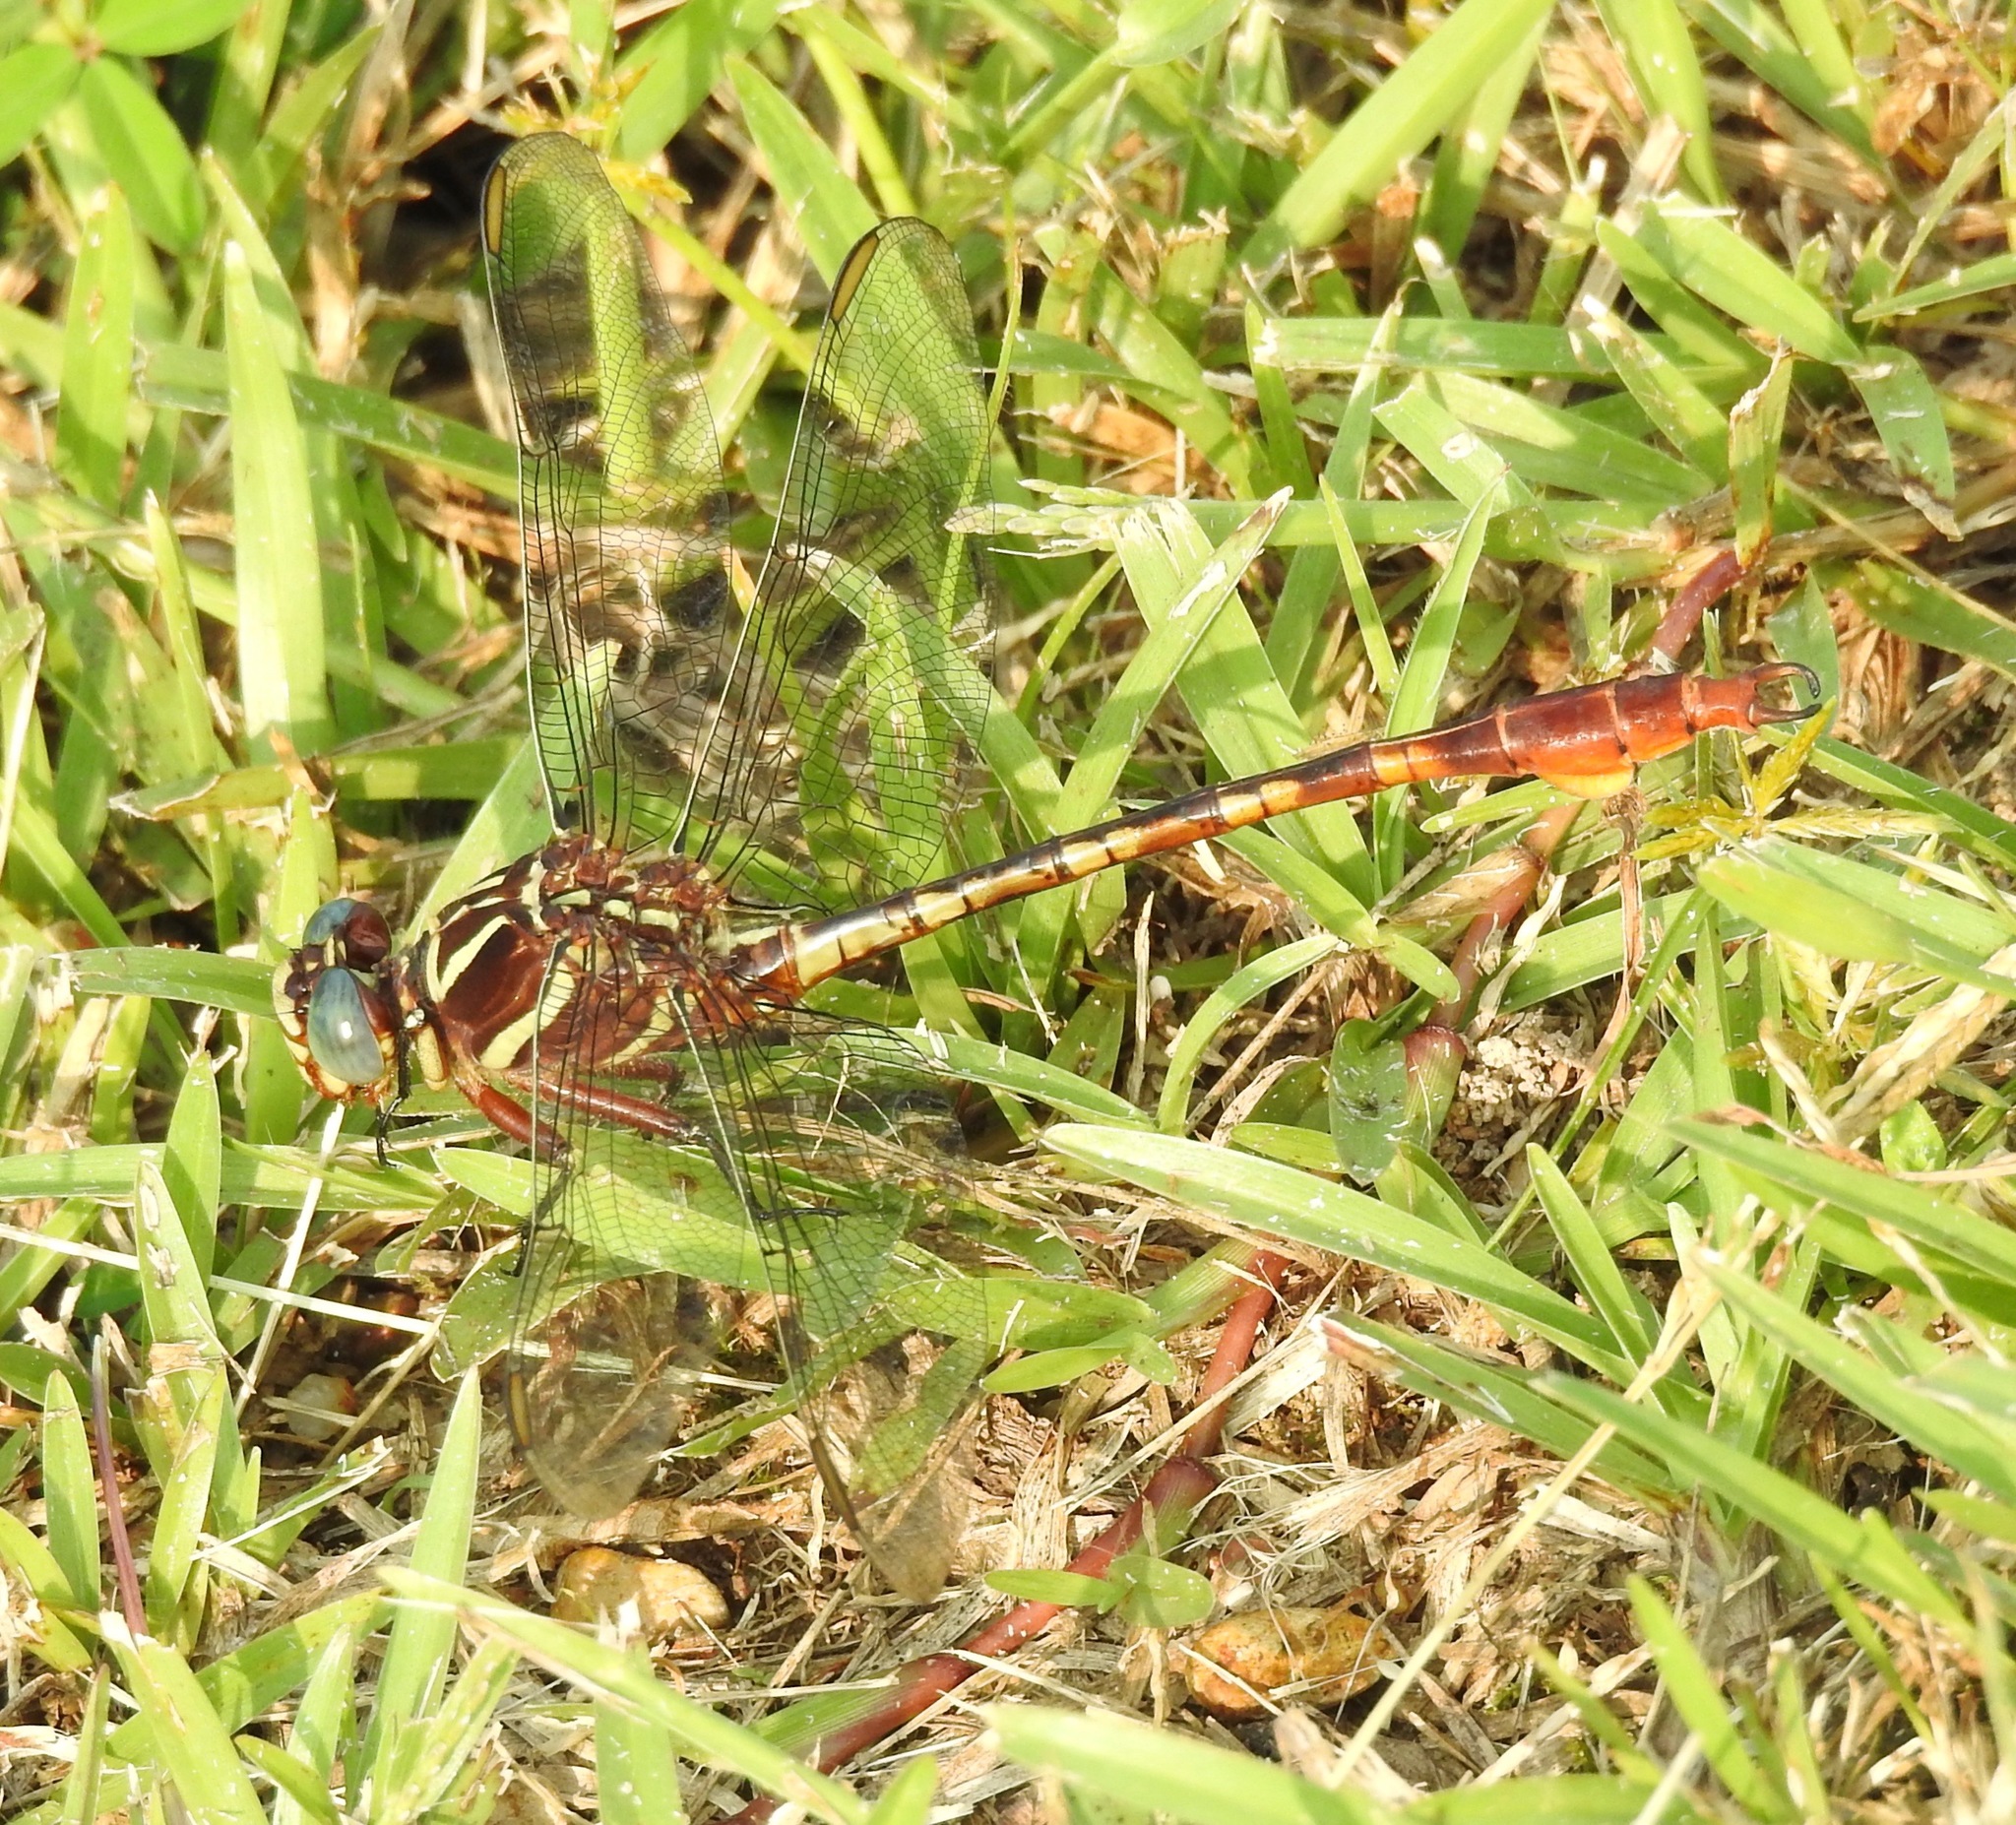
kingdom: Animalia
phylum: Arthropoda
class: Insecta
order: Odonata
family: Gomphidae
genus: Aphylla
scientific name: Aphylla williamsoni
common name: Two-striped forceptail
